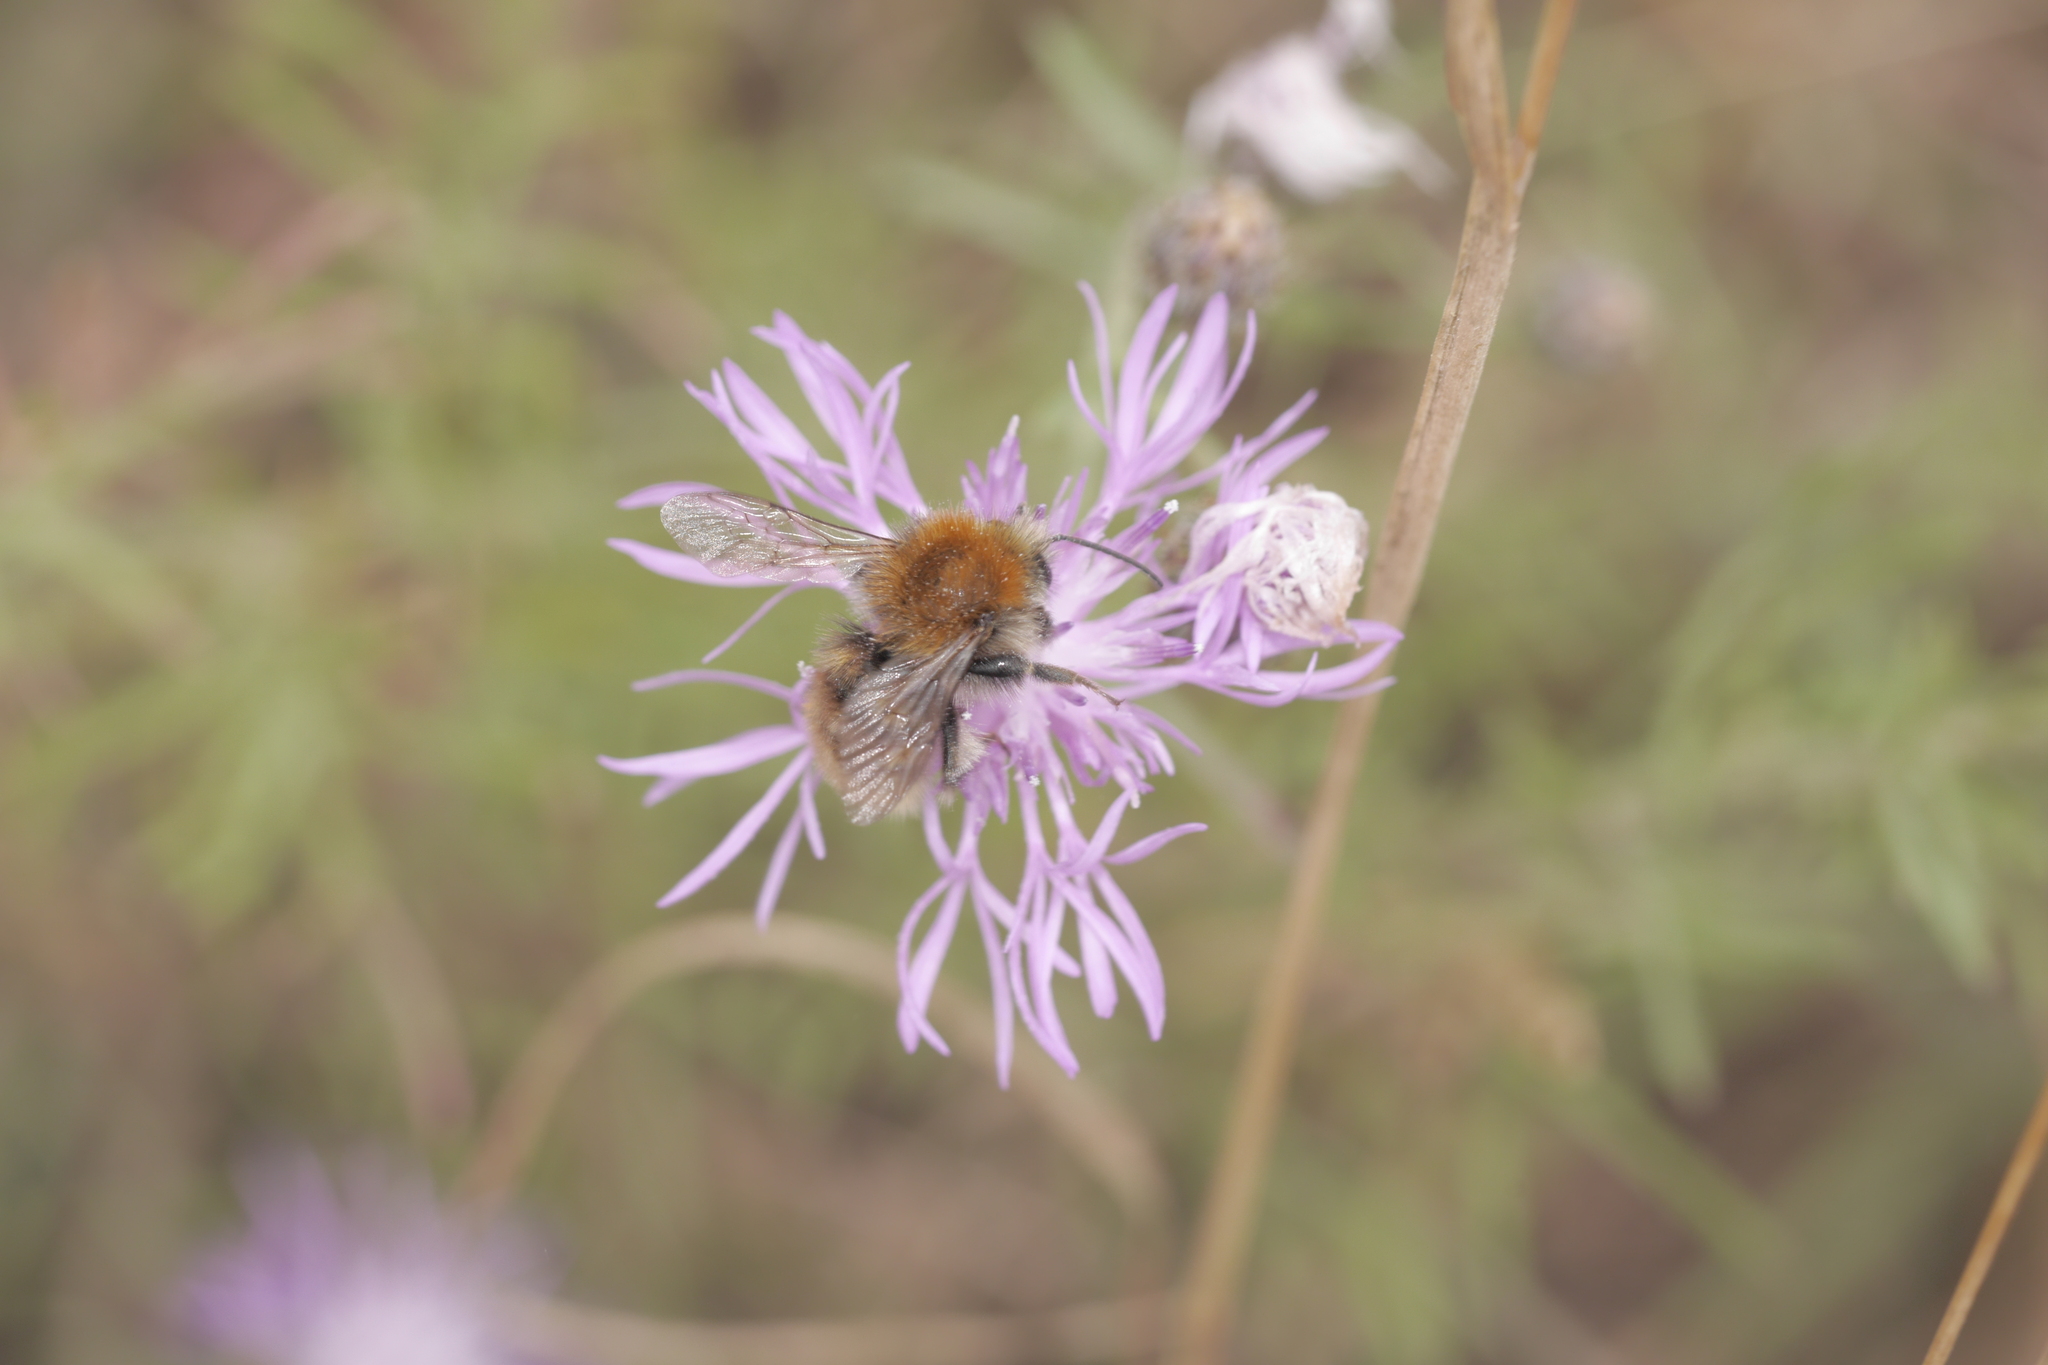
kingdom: Animalia
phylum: Arthropoda
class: Insecta
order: Hymenoptera
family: Apidae
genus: Bombus
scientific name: Bombus humilis
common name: Brown-banded carder-bee
